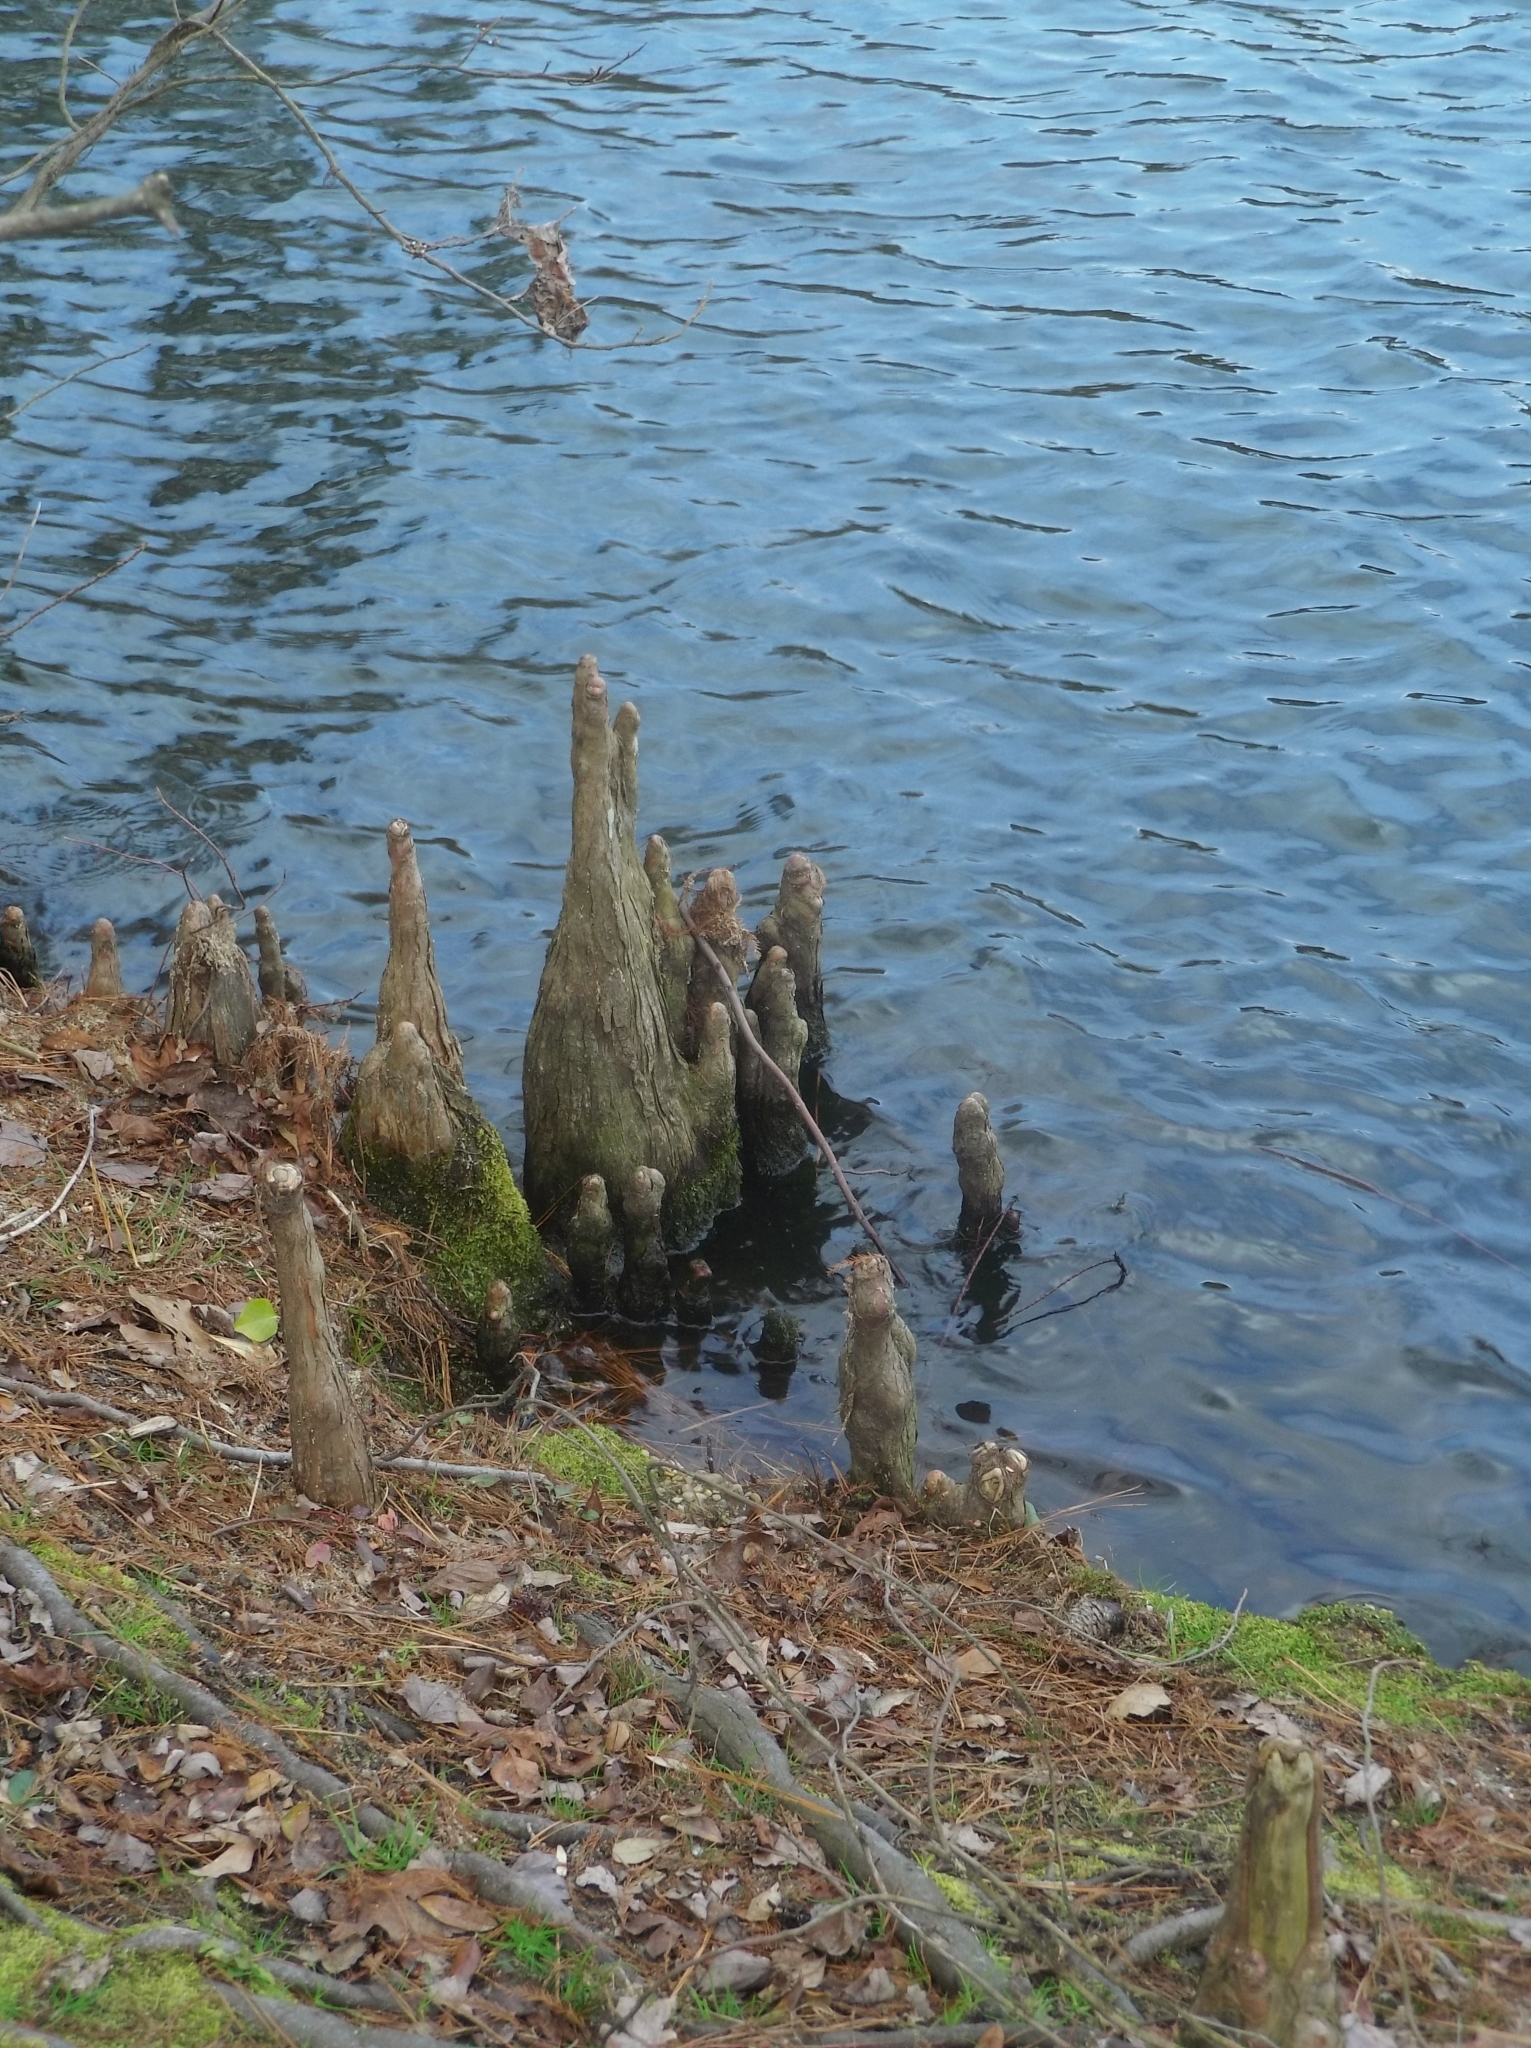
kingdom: Plantae
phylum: Tracheophyta
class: Pinopsida
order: Pinales
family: Cupressaceae
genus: Taxodium
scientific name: Taxodium distichum
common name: Bald cypress
